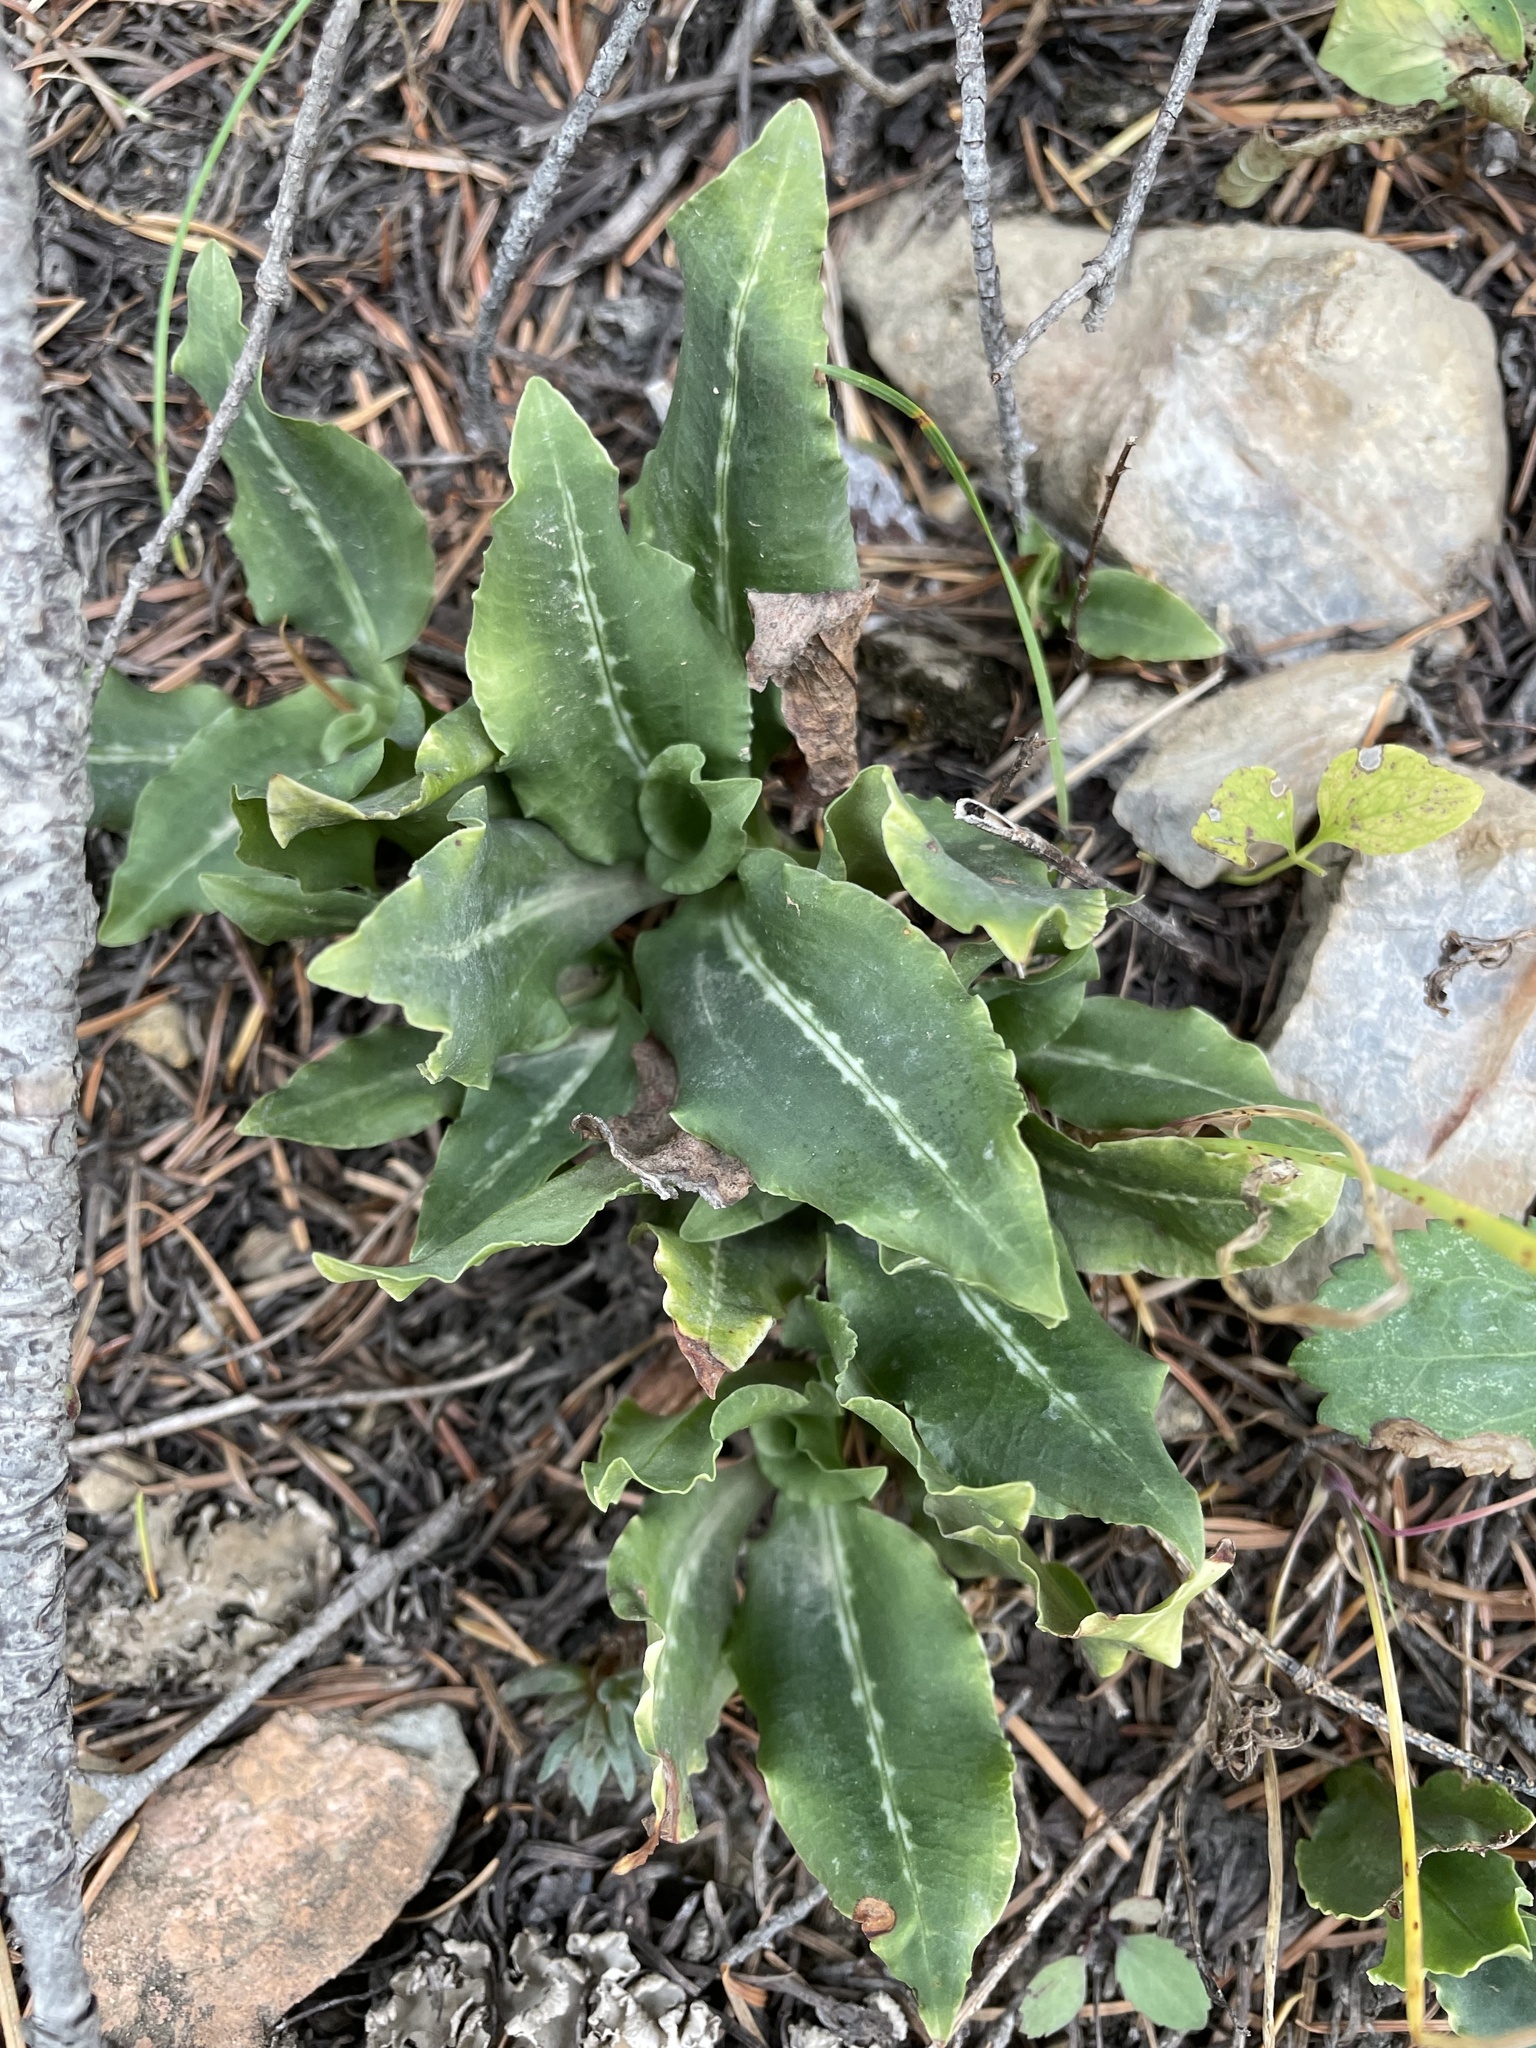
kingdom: Plantae
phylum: Tracheophyta
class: Liliopsida
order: Asparagales
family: Orchidaceae
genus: Goodyera
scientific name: Goodyera oblongifolia
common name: Giant rattlesnake-plantain
